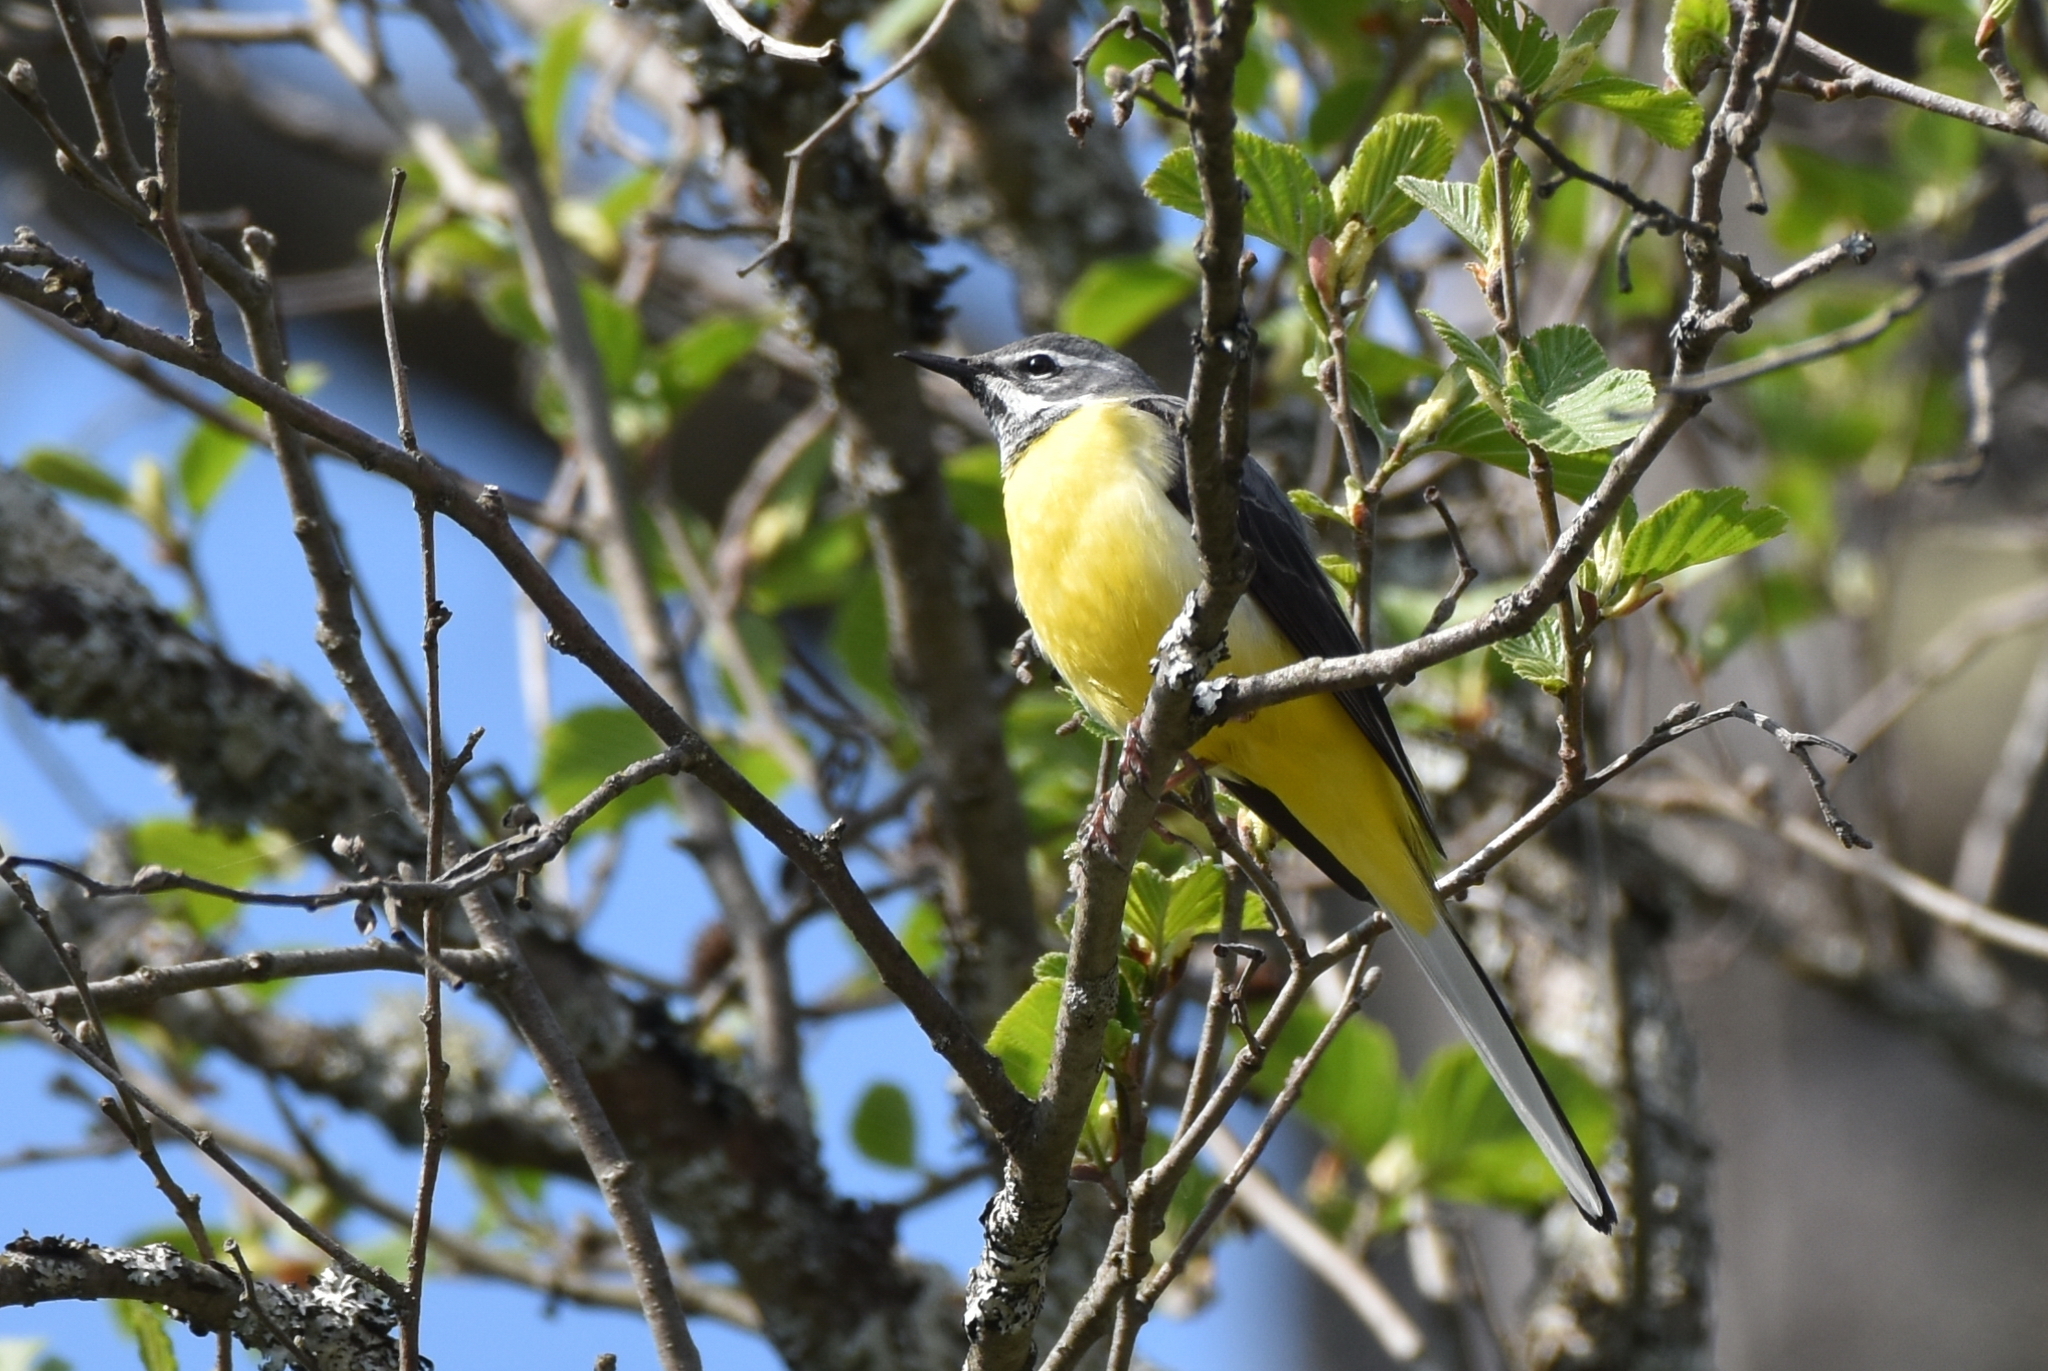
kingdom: Animalia
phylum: Chordata
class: Aves
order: Passeriformes
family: Motacillidae
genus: Motacilla
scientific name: Motacilla cinerea
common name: Grey wagtail
